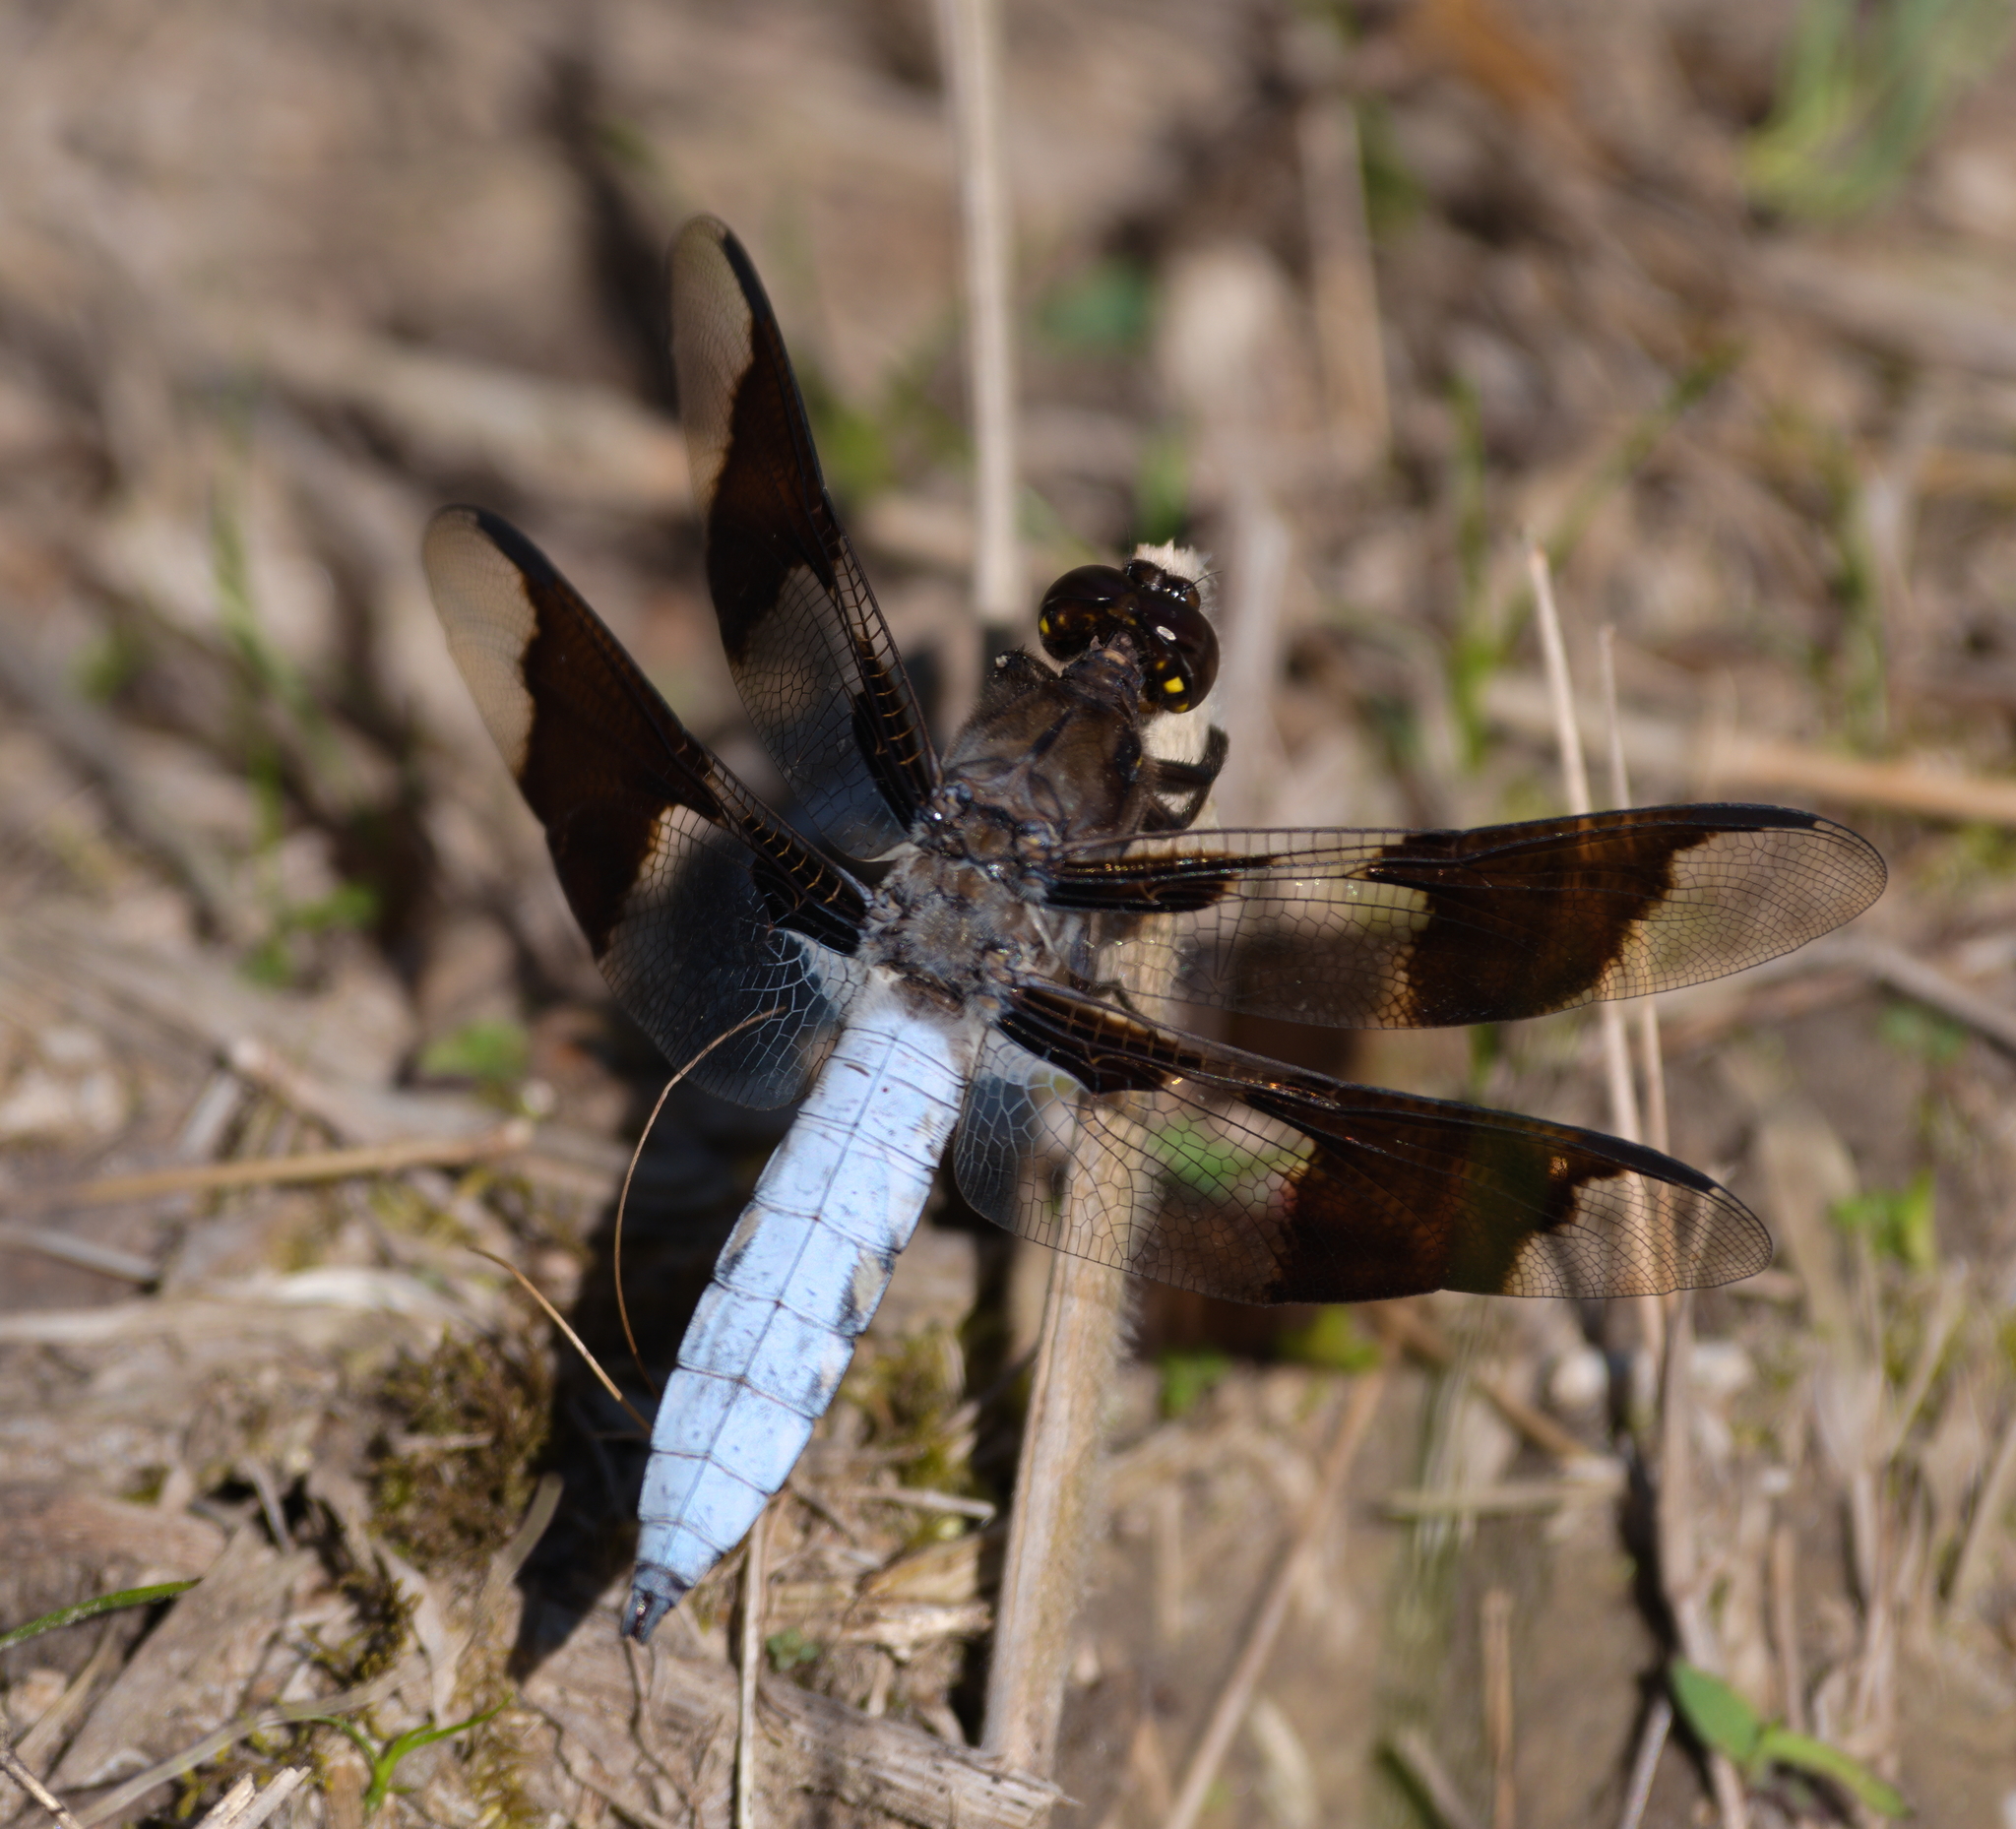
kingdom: Animalia
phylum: Arthropoda
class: Insecta
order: Odonata
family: Libellulidae
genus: Plathemis
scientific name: Plathemis lydia
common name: Common whitetail
